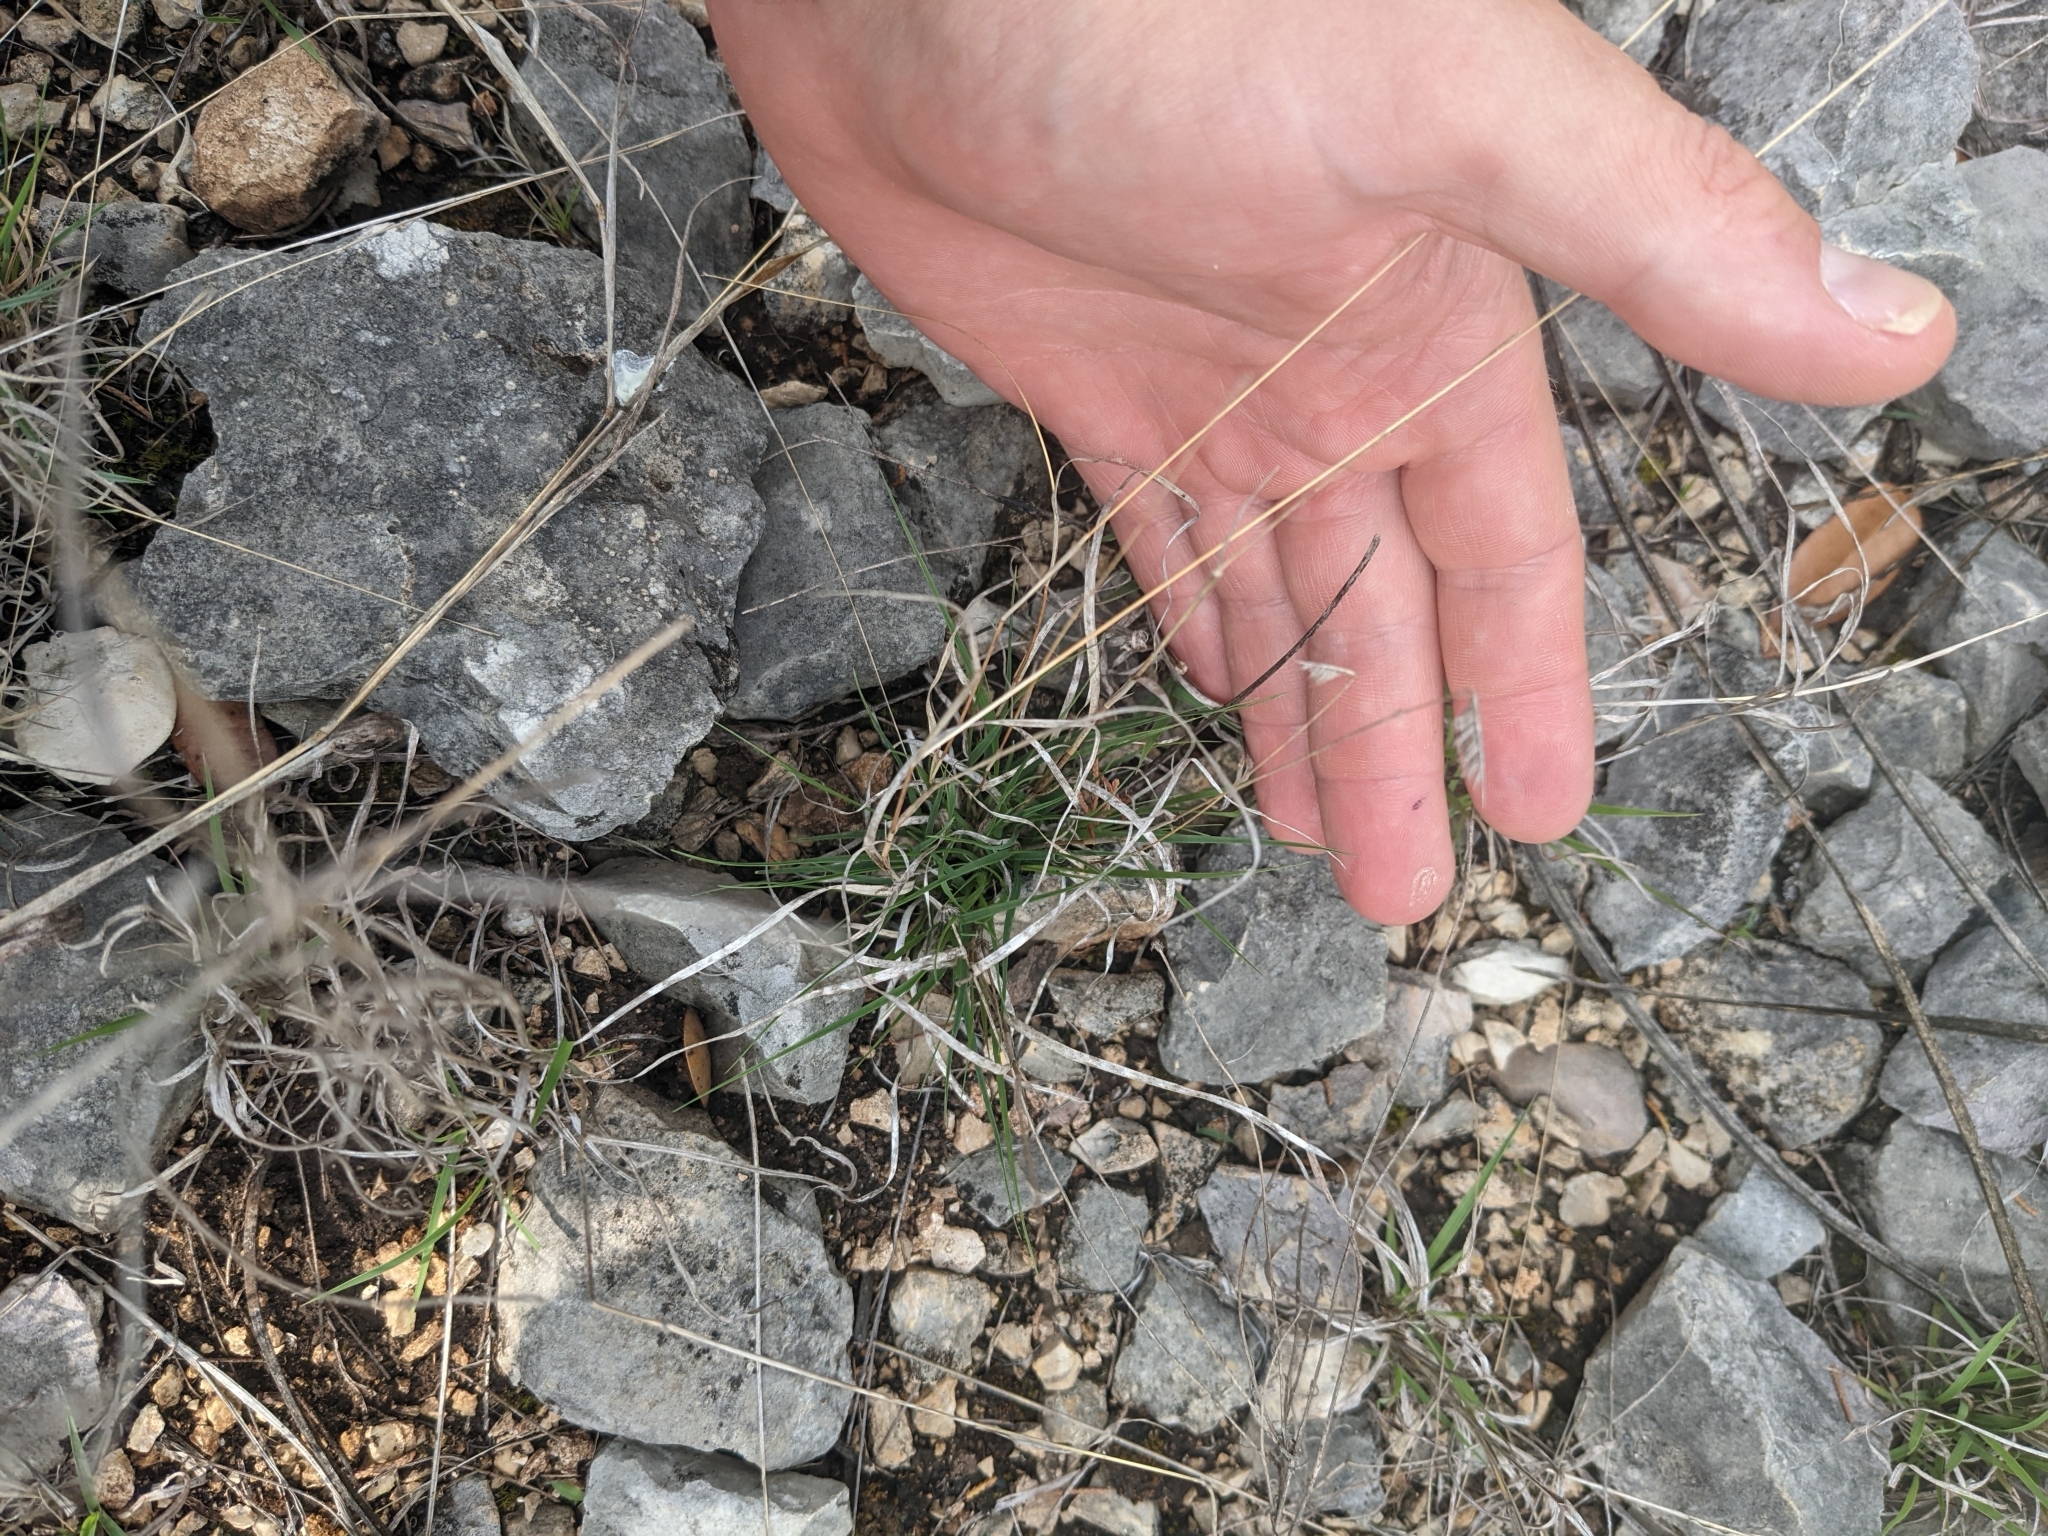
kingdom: Plantae
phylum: Tracheophyta
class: Liliopsida
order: Poales
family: Poaceae
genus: Bouteloua
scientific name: Bouteloua hirsuta
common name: Hairy grama
